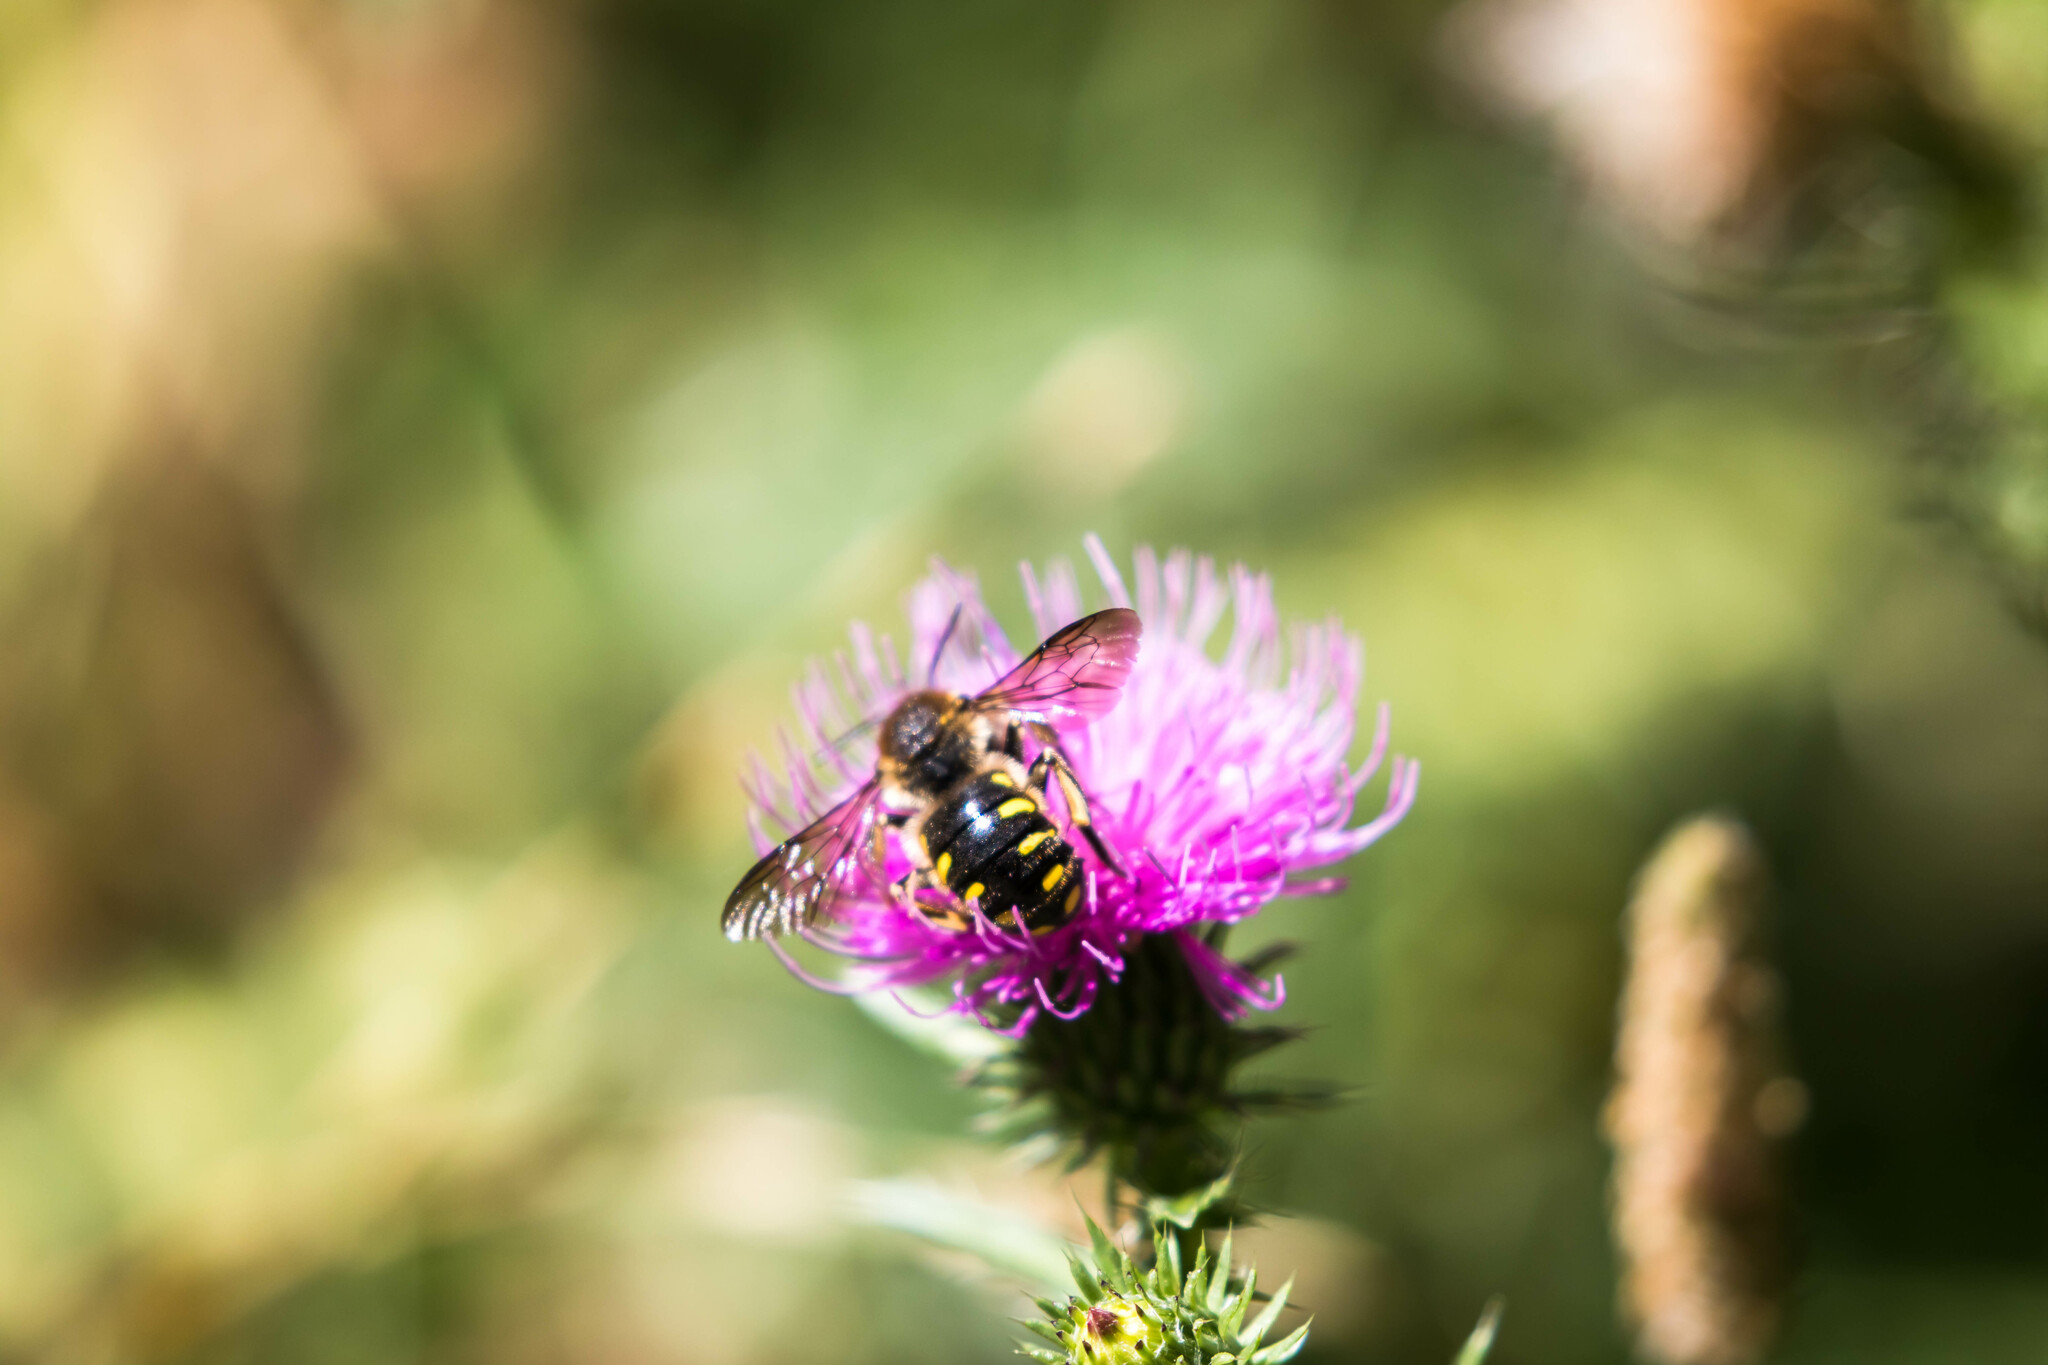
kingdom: Animalia
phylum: Arthropoda
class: Insecta
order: Hymenoptera
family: Megachilidae
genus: Anthidium
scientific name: Anthidium septemspinosum
